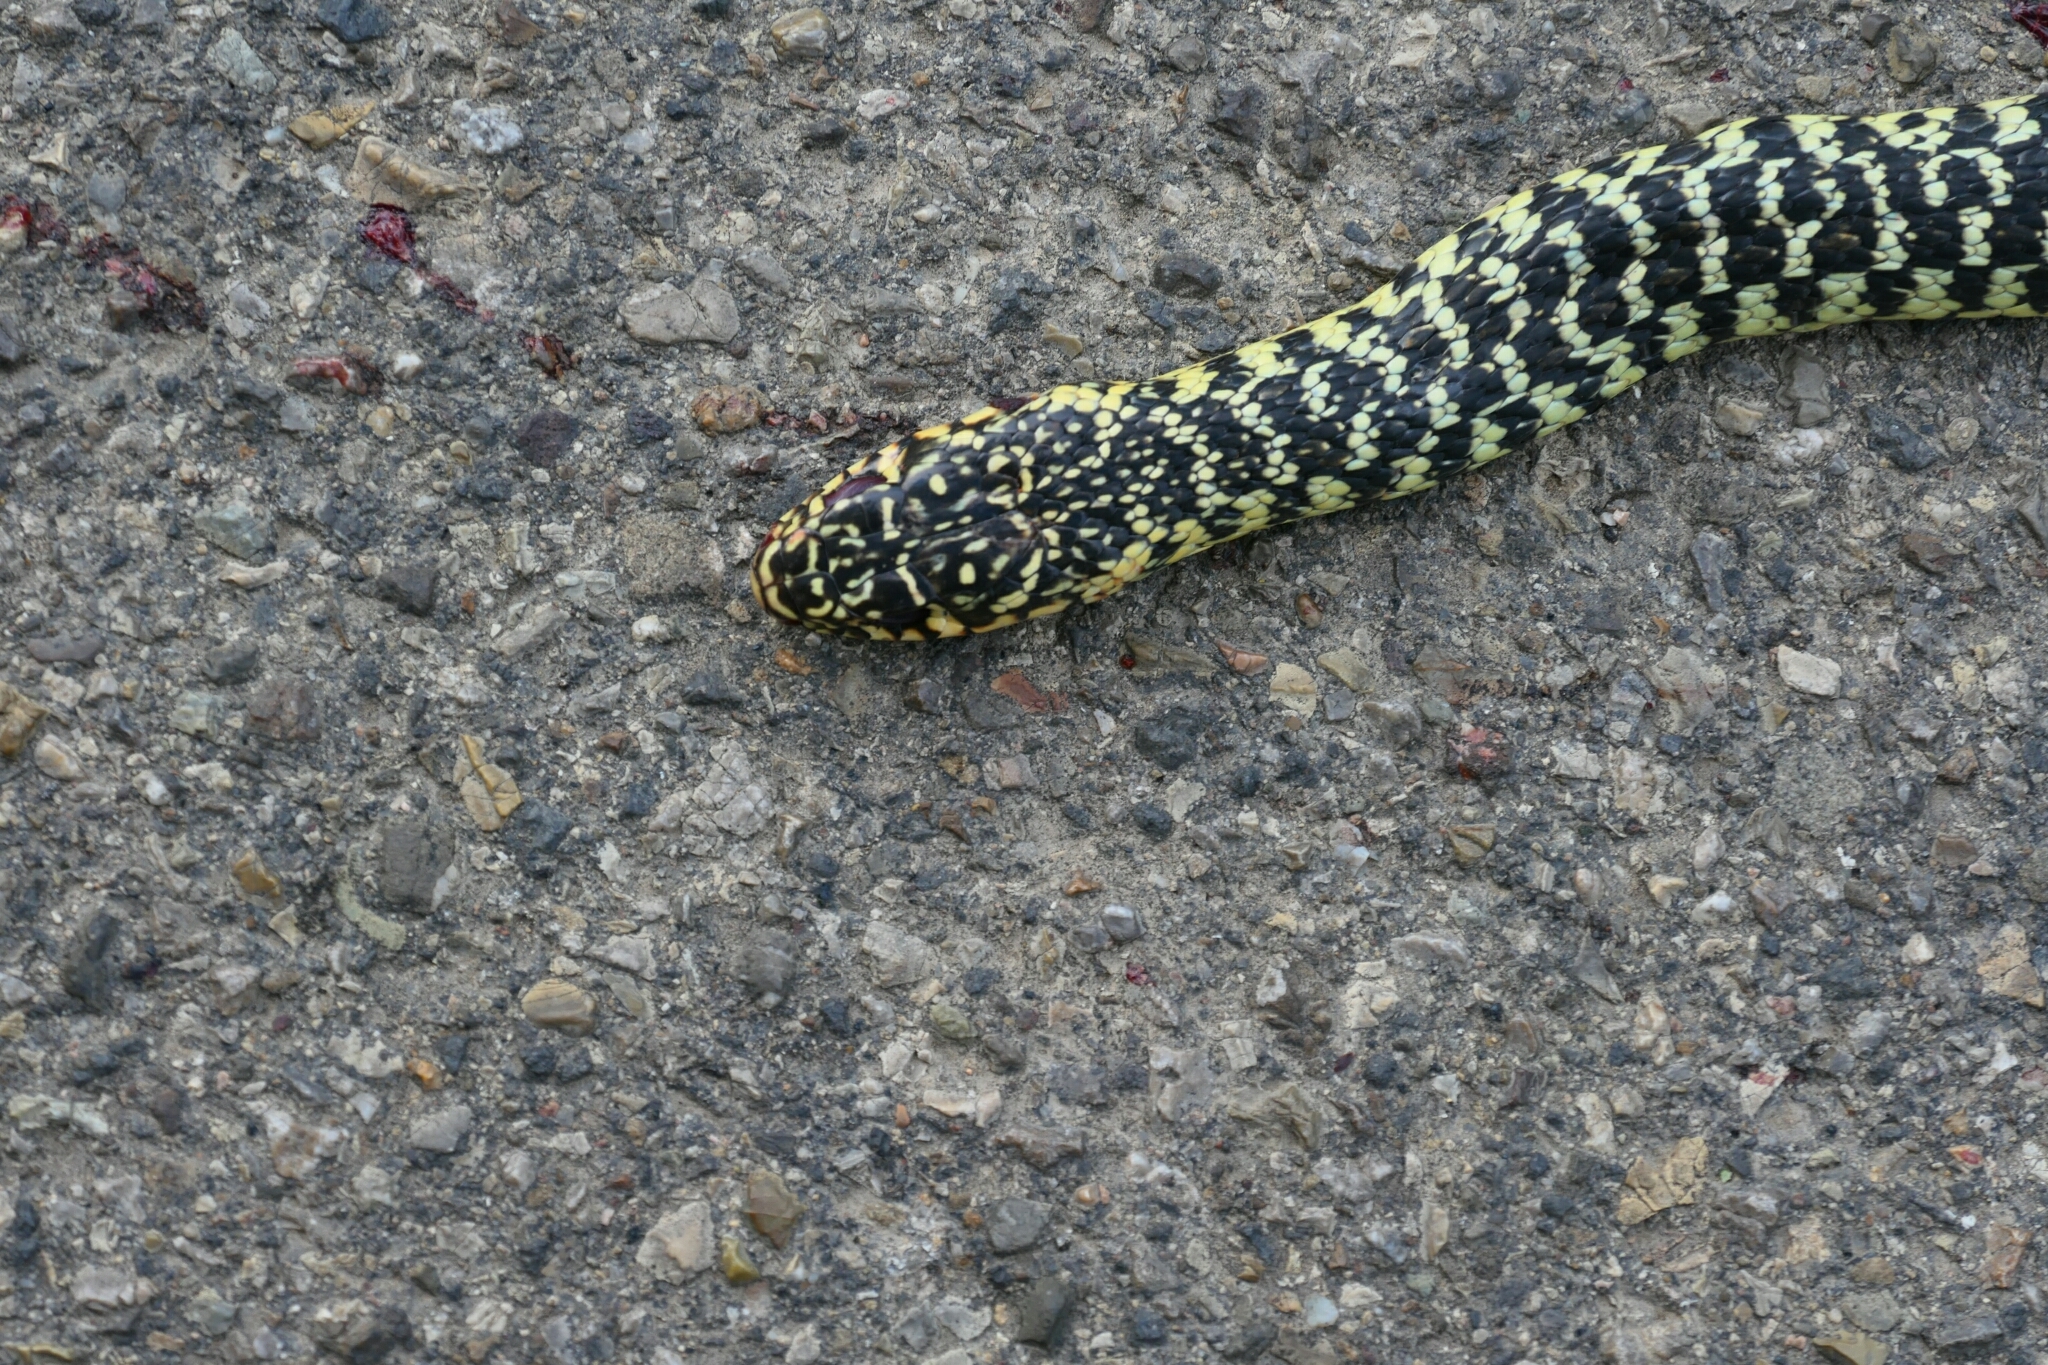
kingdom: Animalia
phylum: Chordata
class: Squamata
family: Colubridae
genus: Hierophis
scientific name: Hierophis viridiflavus
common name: Green whip snake
